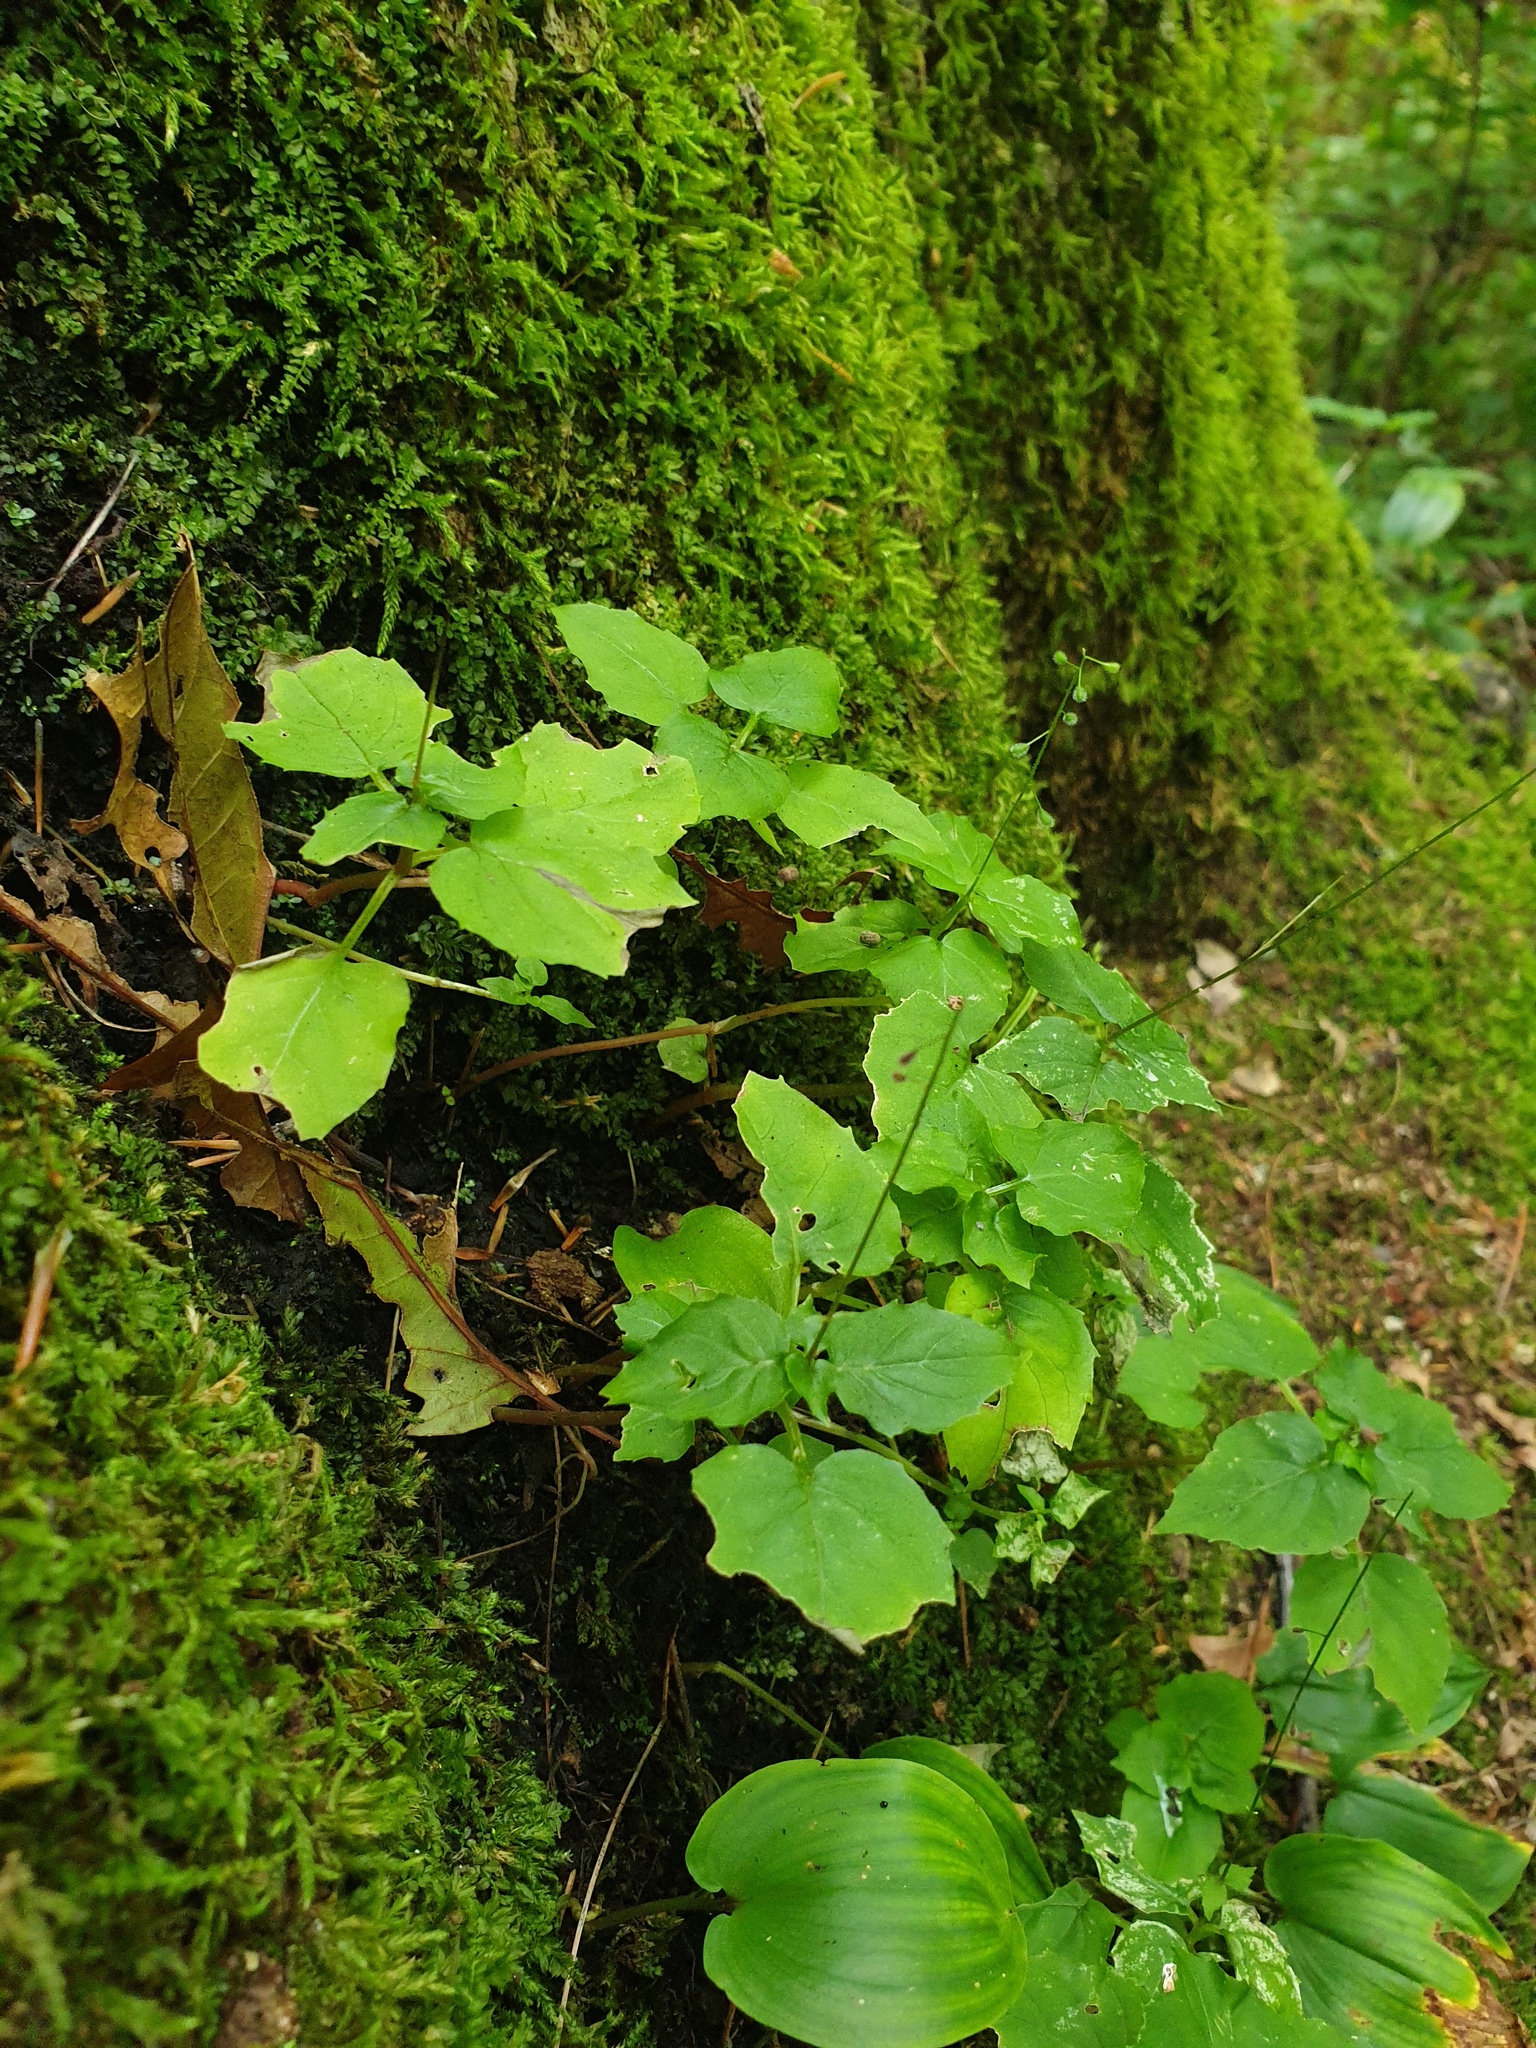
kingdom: Plantae
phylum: Tracheophyta
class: Magnoliopsida
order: Myrtales
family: Onagraceae
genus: Circaea
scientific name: Circaea alpina
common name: Alpine enchanter's-nightshade
